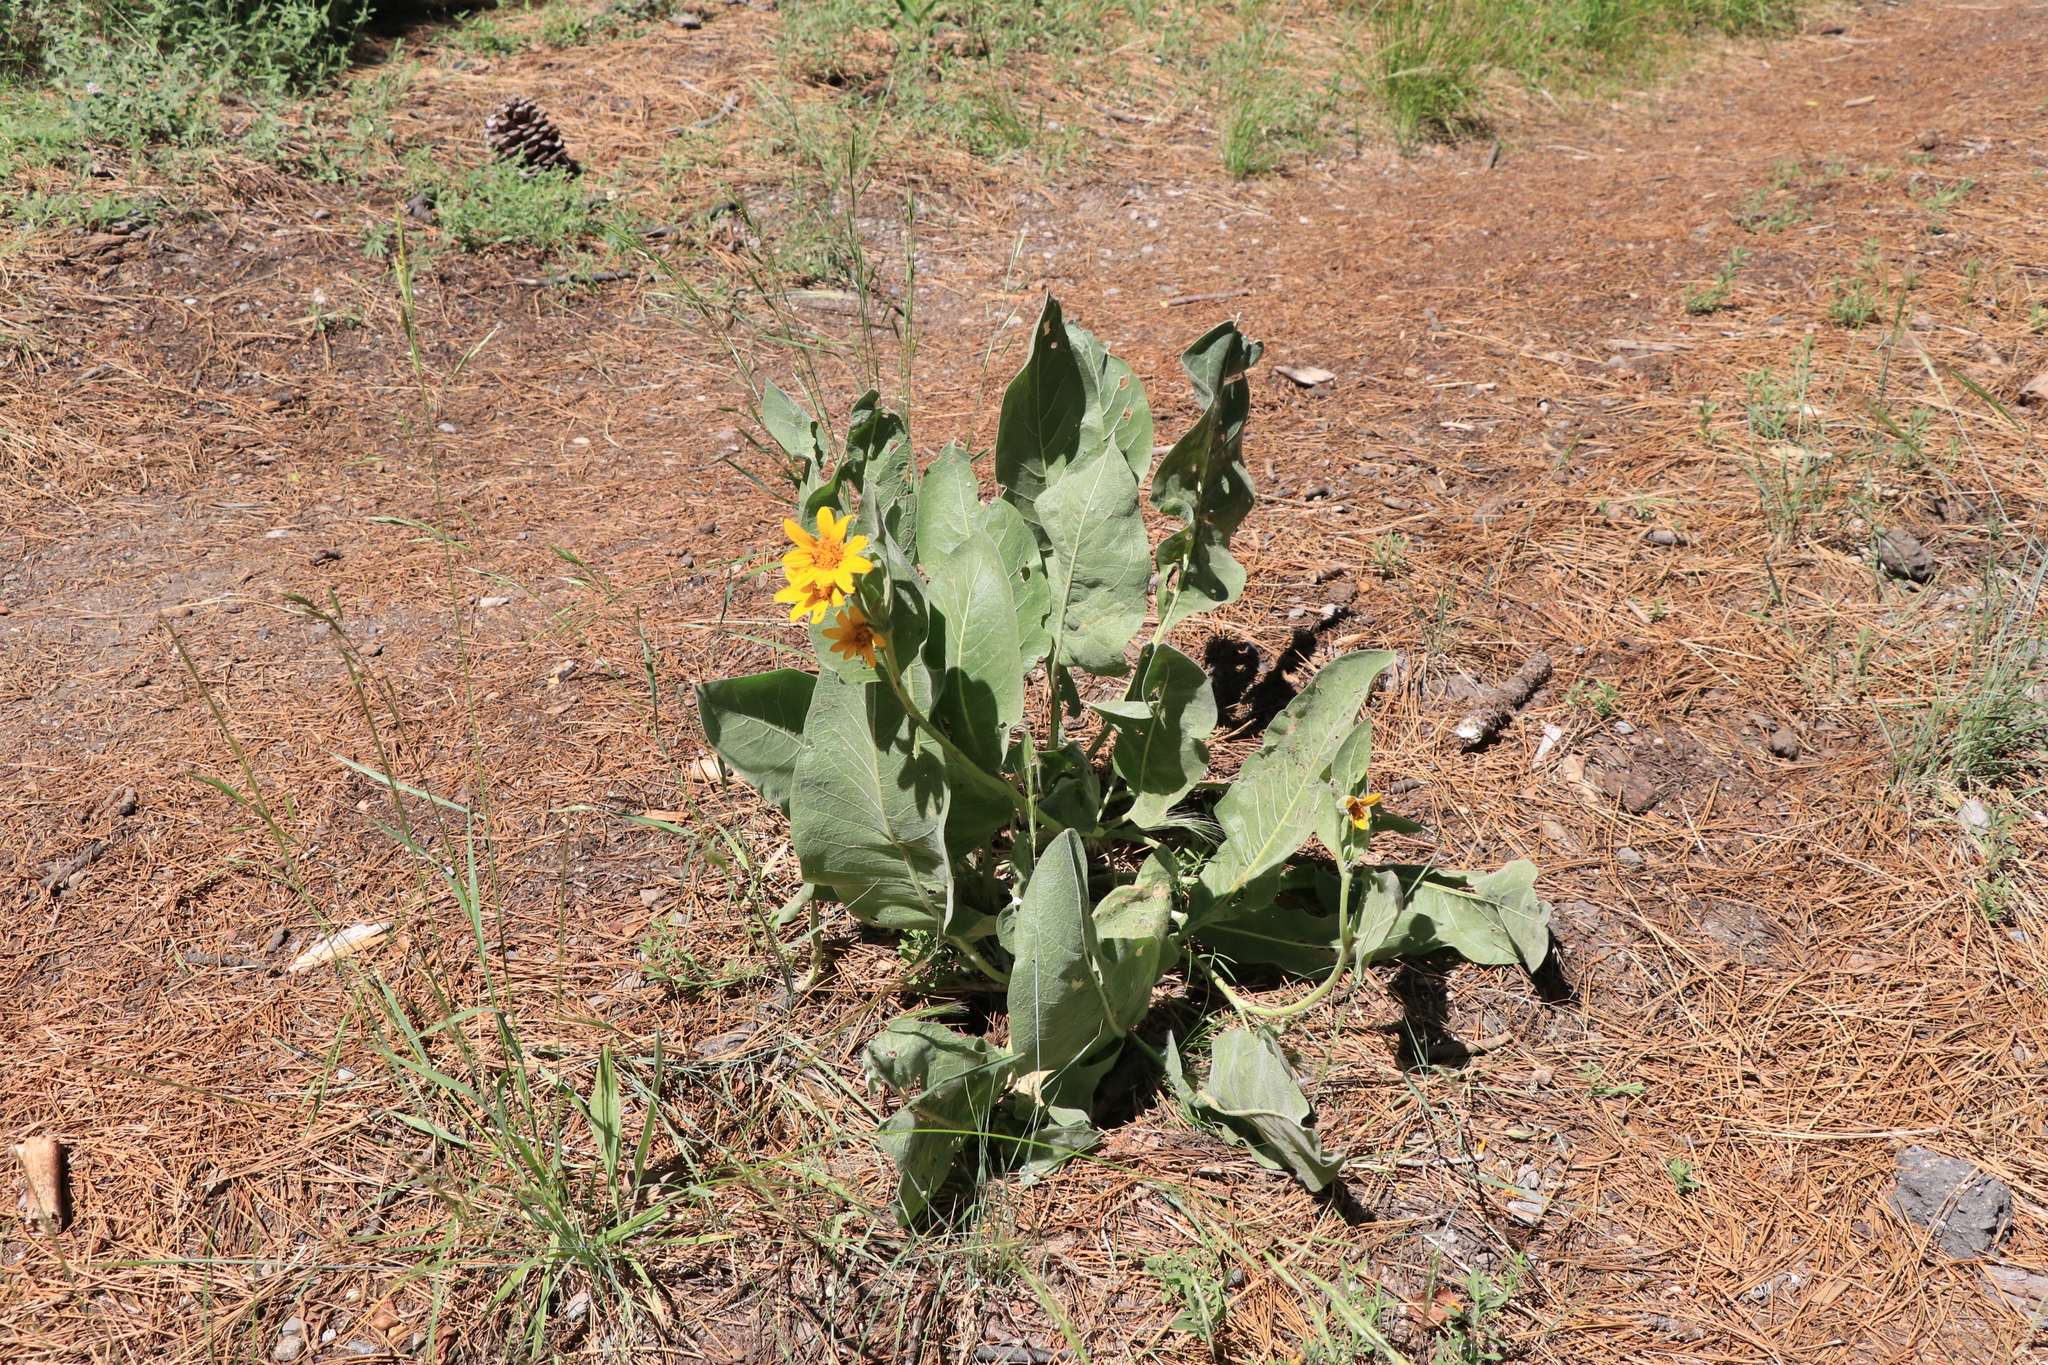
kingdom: Plantae
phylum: Tracheophyta
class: Magnoliopsida
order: Asterales
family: Asteraceae
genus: Wyethia
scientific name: Wyethia mollis
